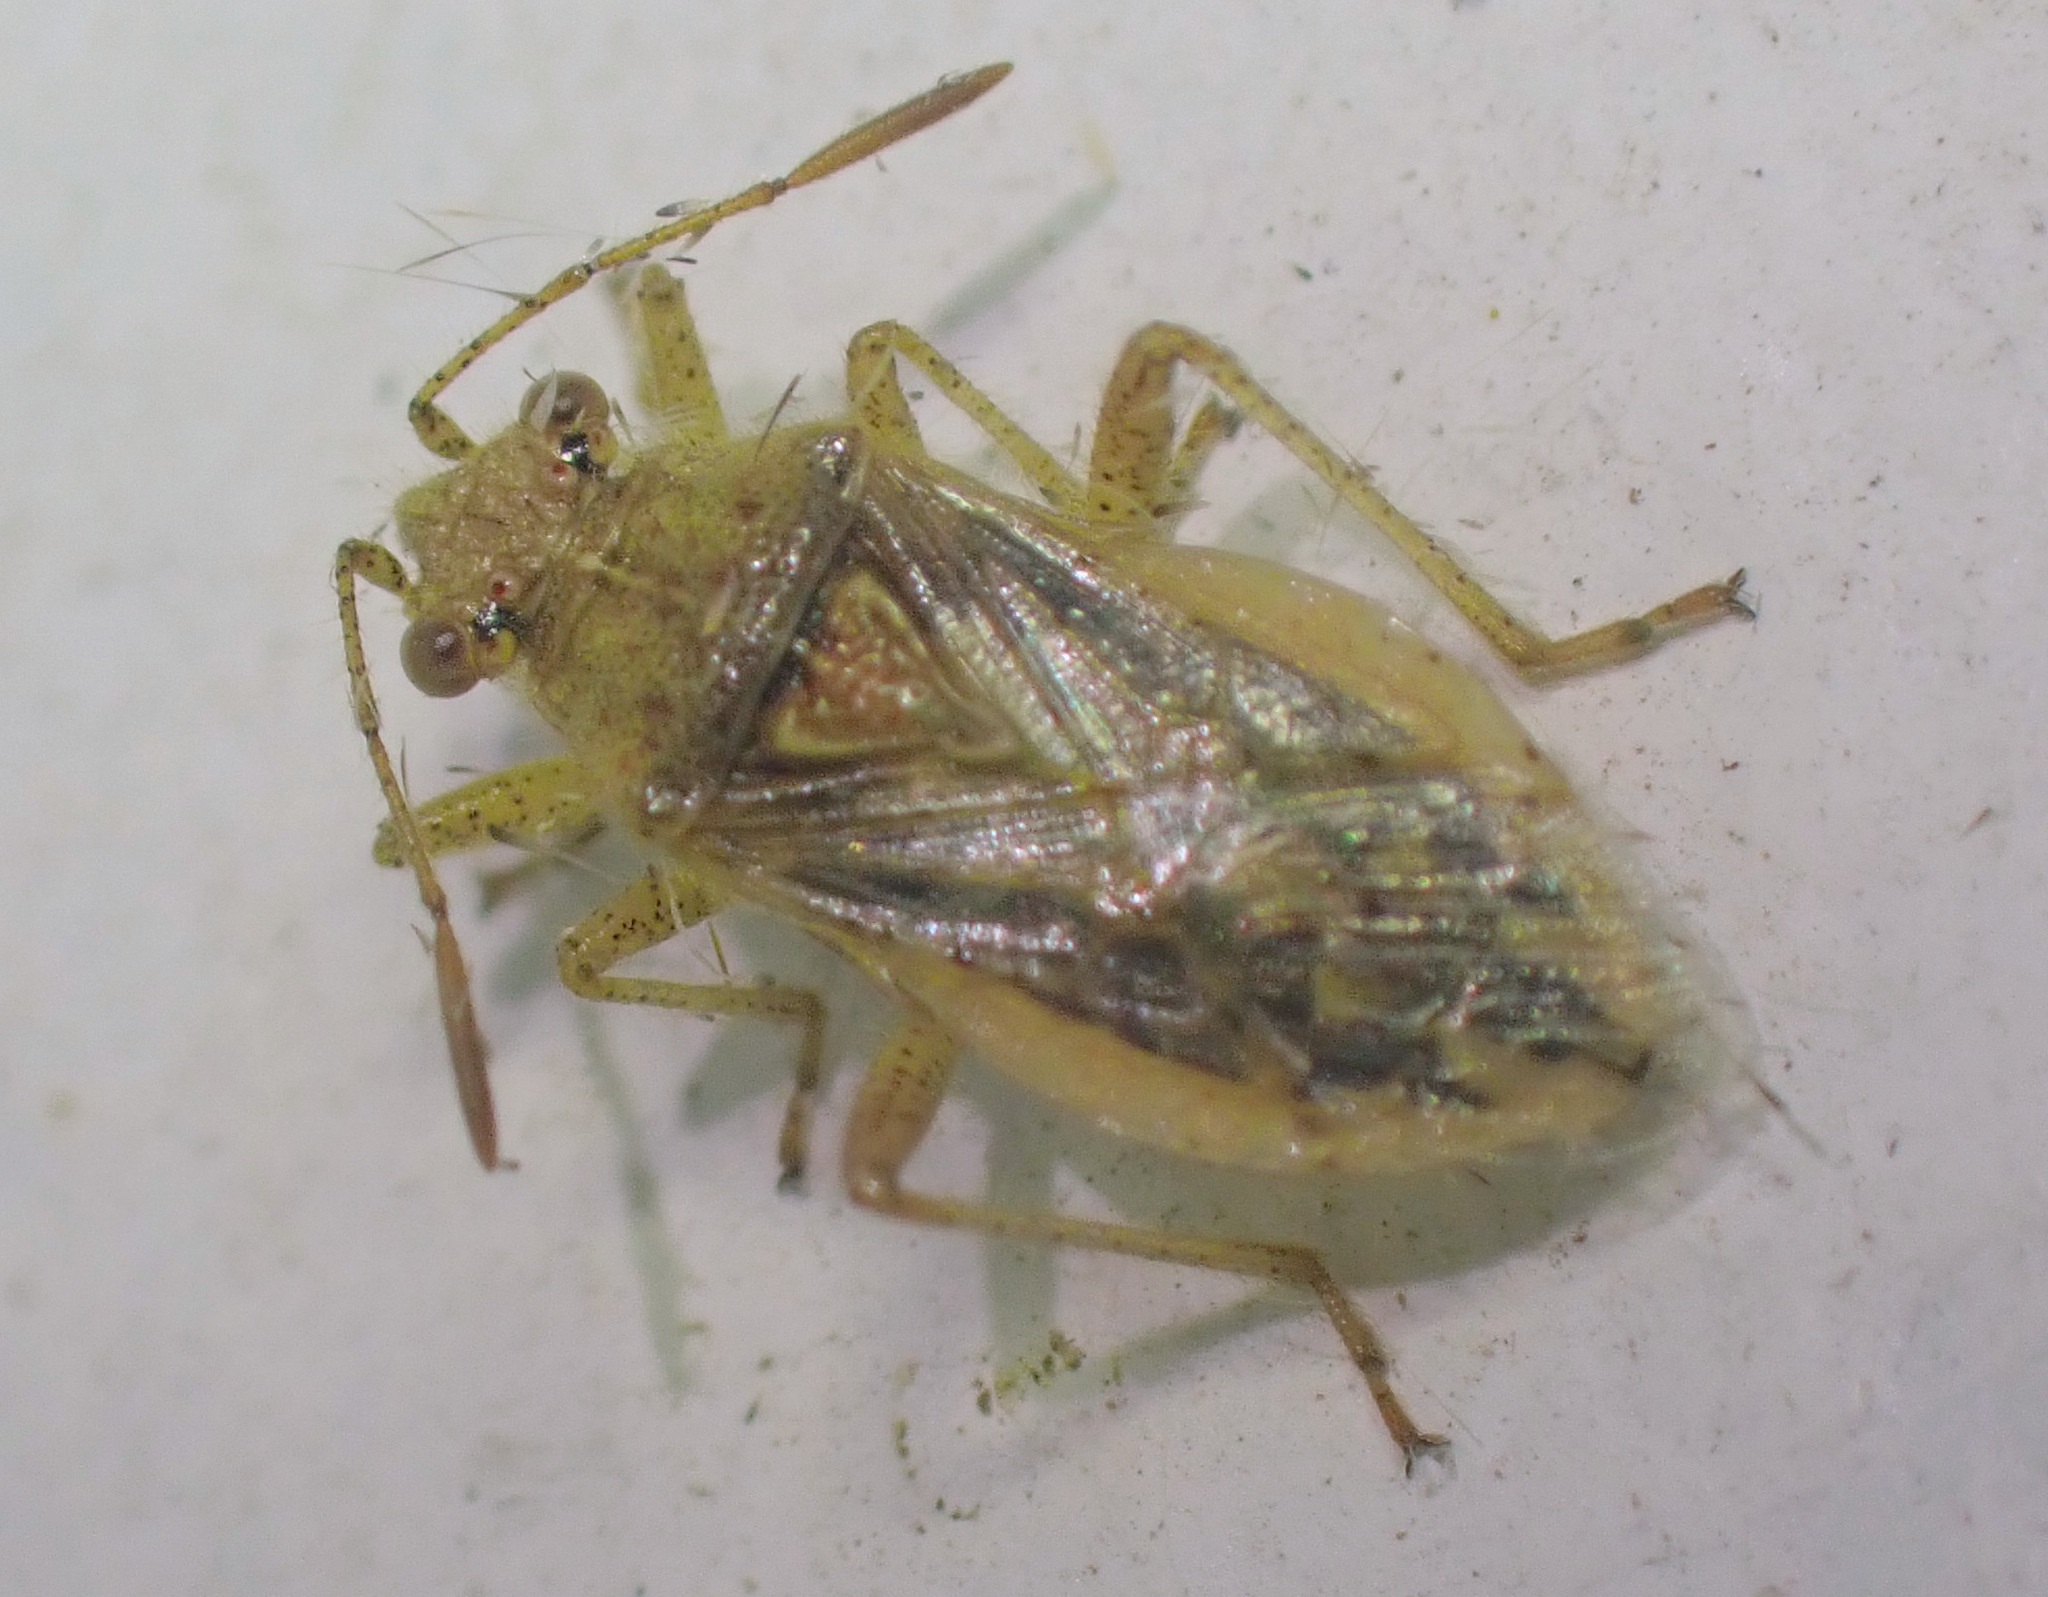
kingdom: Animalia
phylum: Arthropoda
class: Insecta
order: Hemiptera
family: Rhopalidae
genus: Rhopalus
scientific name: Rhopalus parumpunctatus
